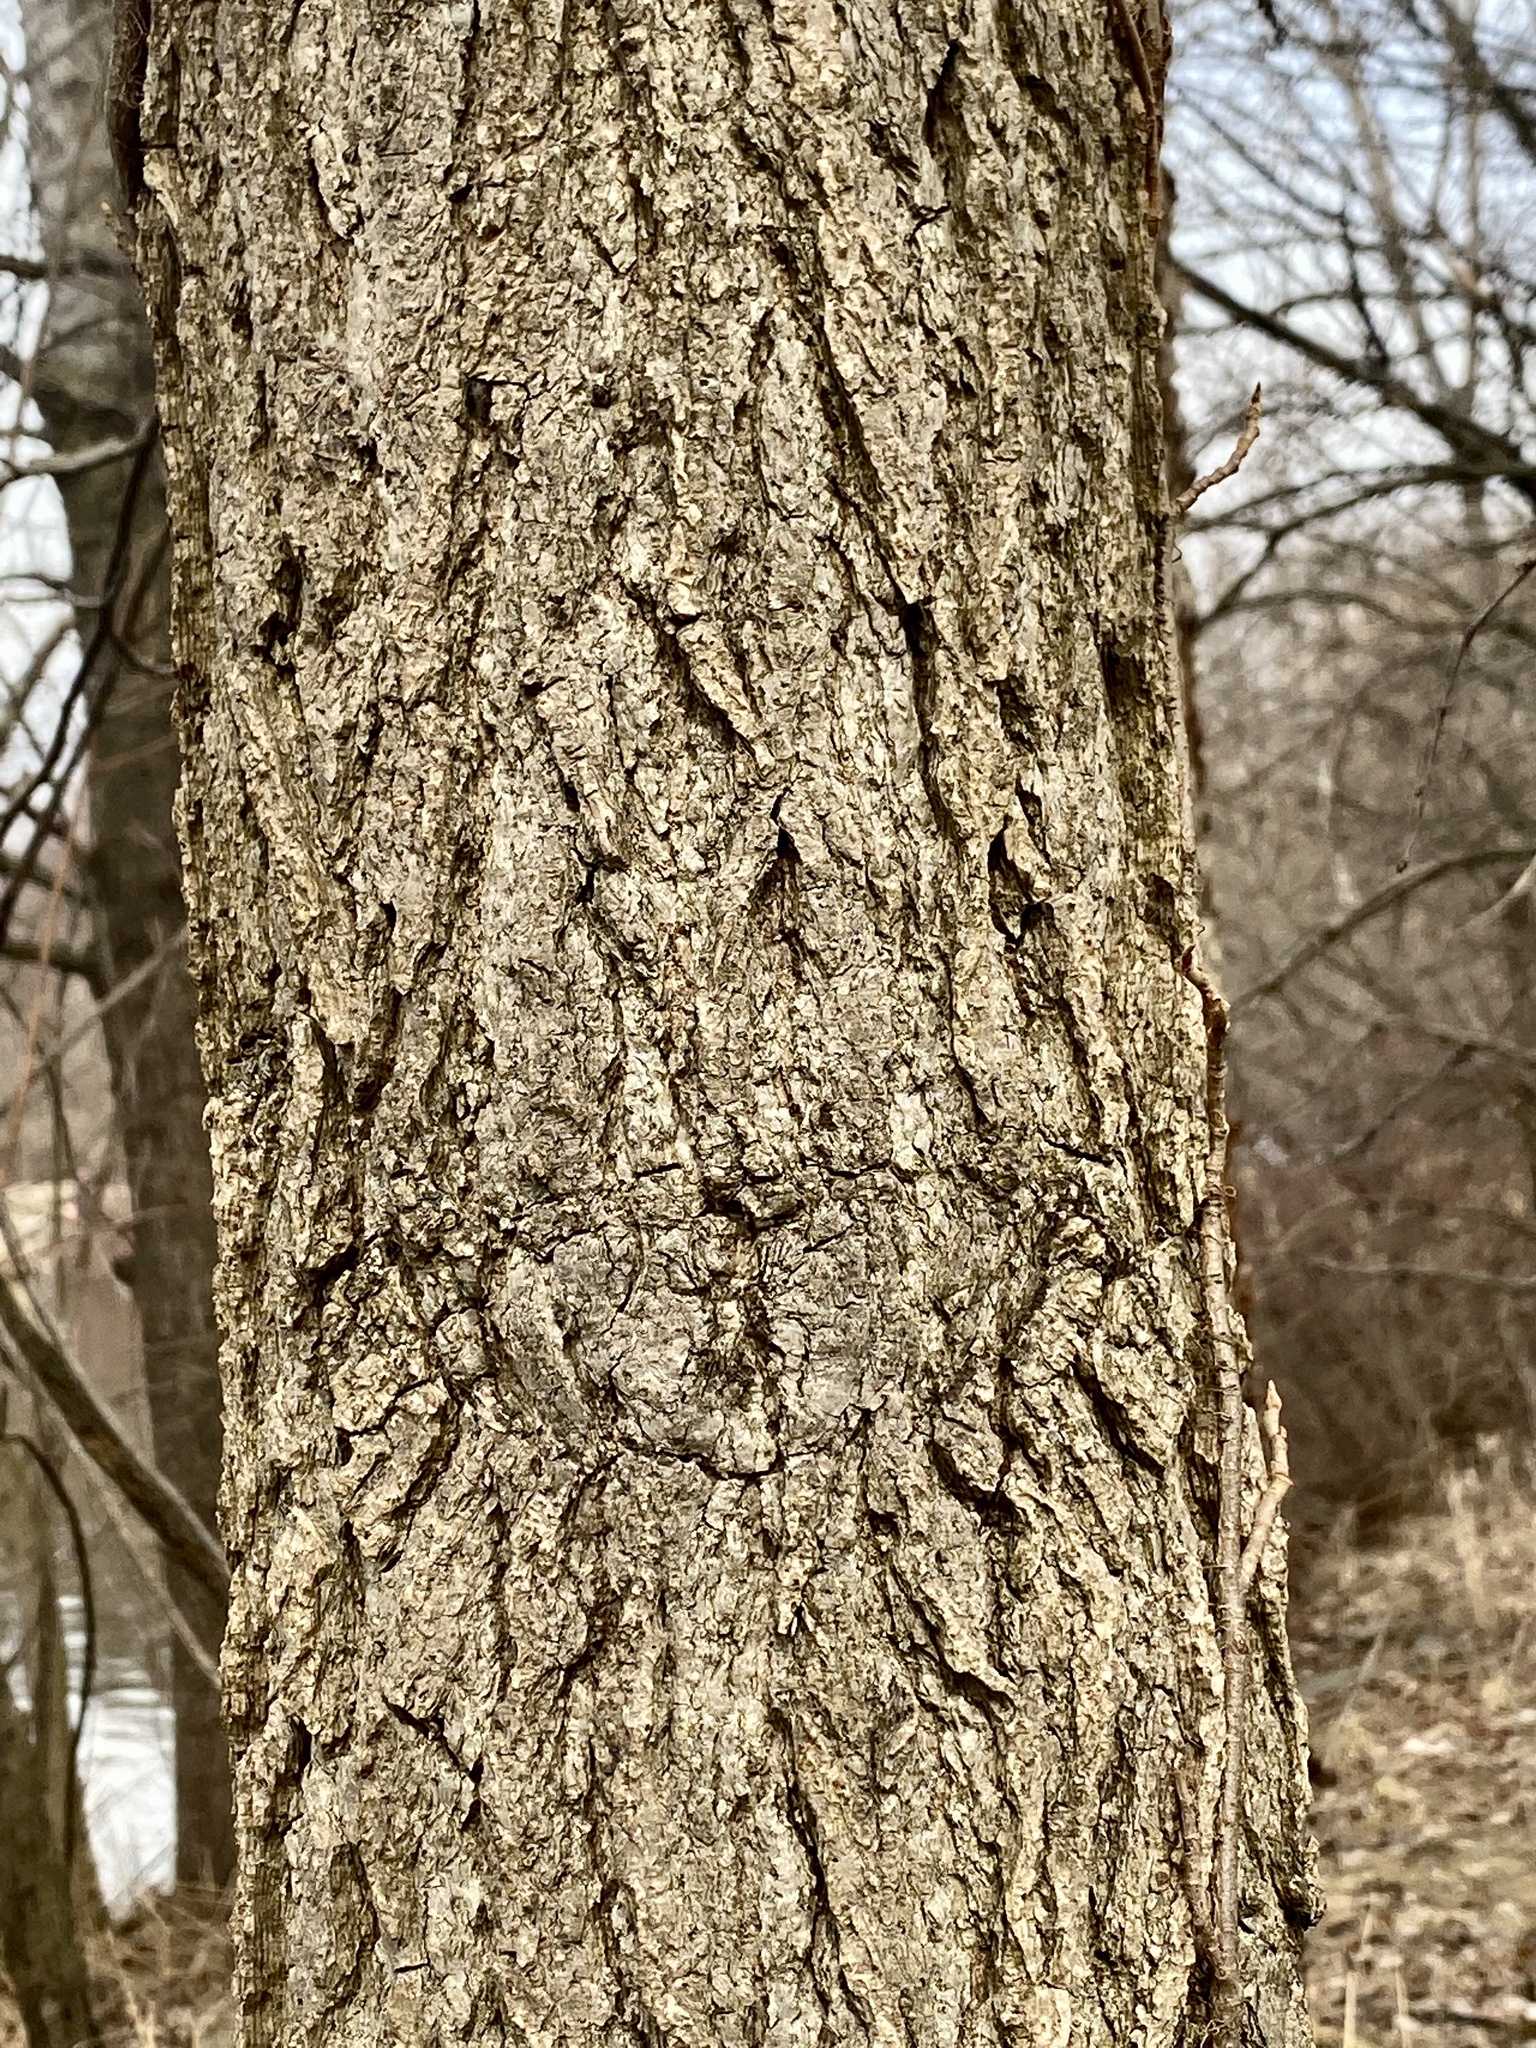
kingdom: Plantae
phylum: Tracheophyta
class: Magnoliopsida
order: Saxifragales
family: Altingiaceae
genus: Liquidambar
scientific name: Liquidambar styraciflua
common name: Sweet gum
